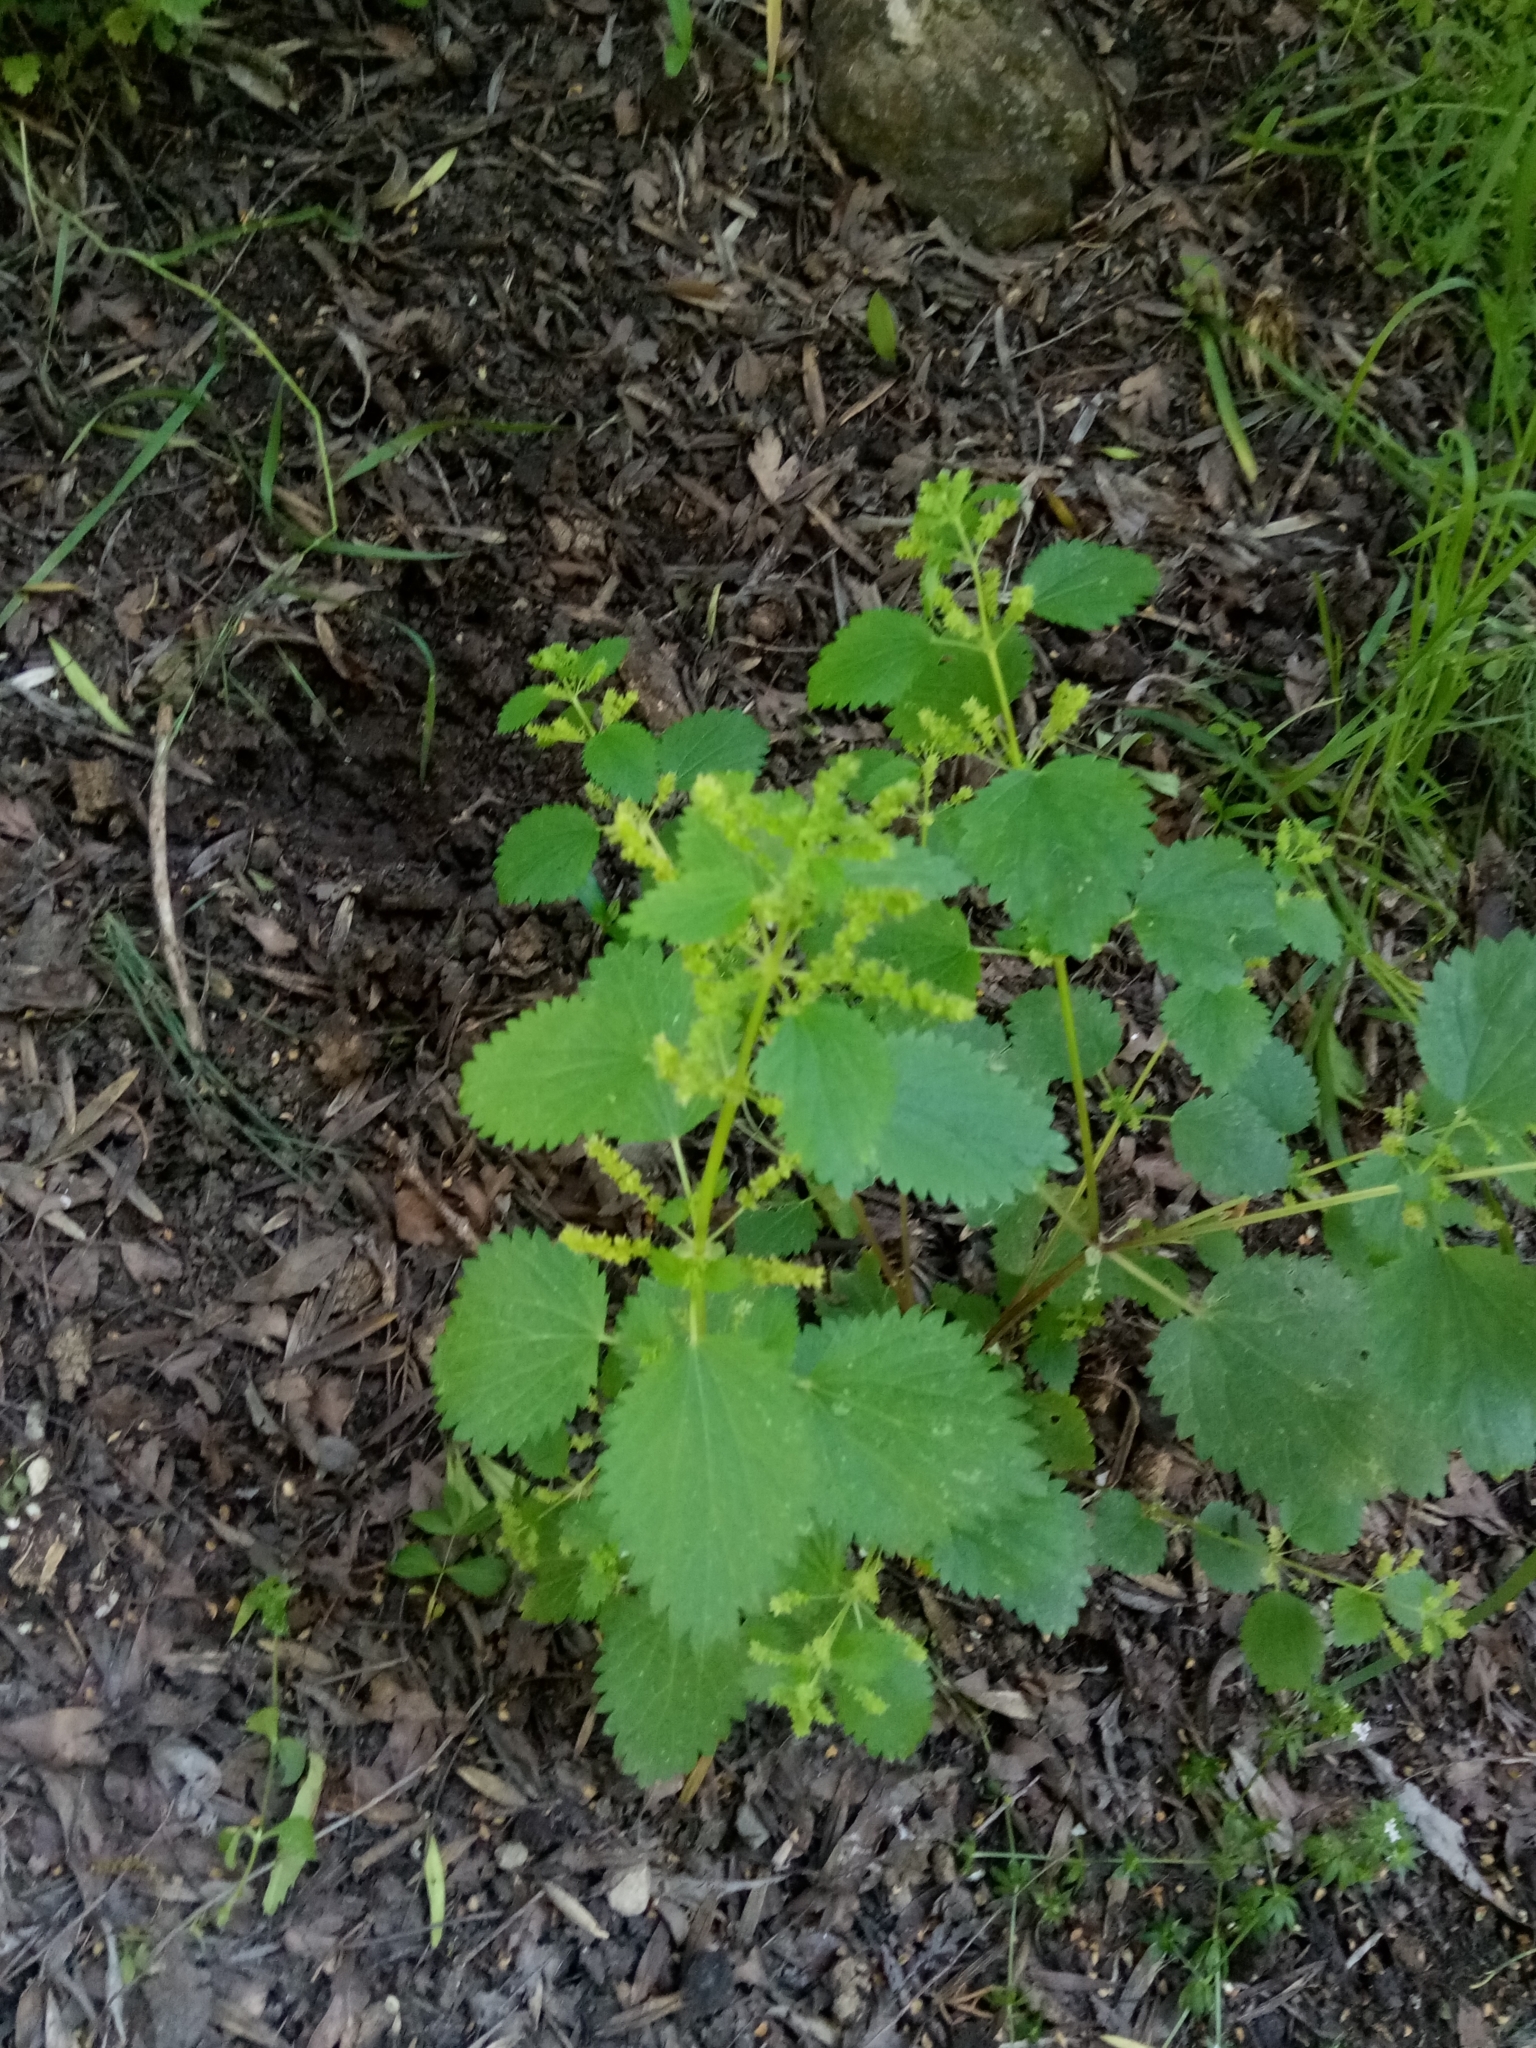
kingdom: Plantae
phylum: Tracheophyta
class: Magnoliopsida
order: Rosales
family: Urticaceae
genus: Urtica
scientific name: Urtica urens
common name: Dwarf nettle
